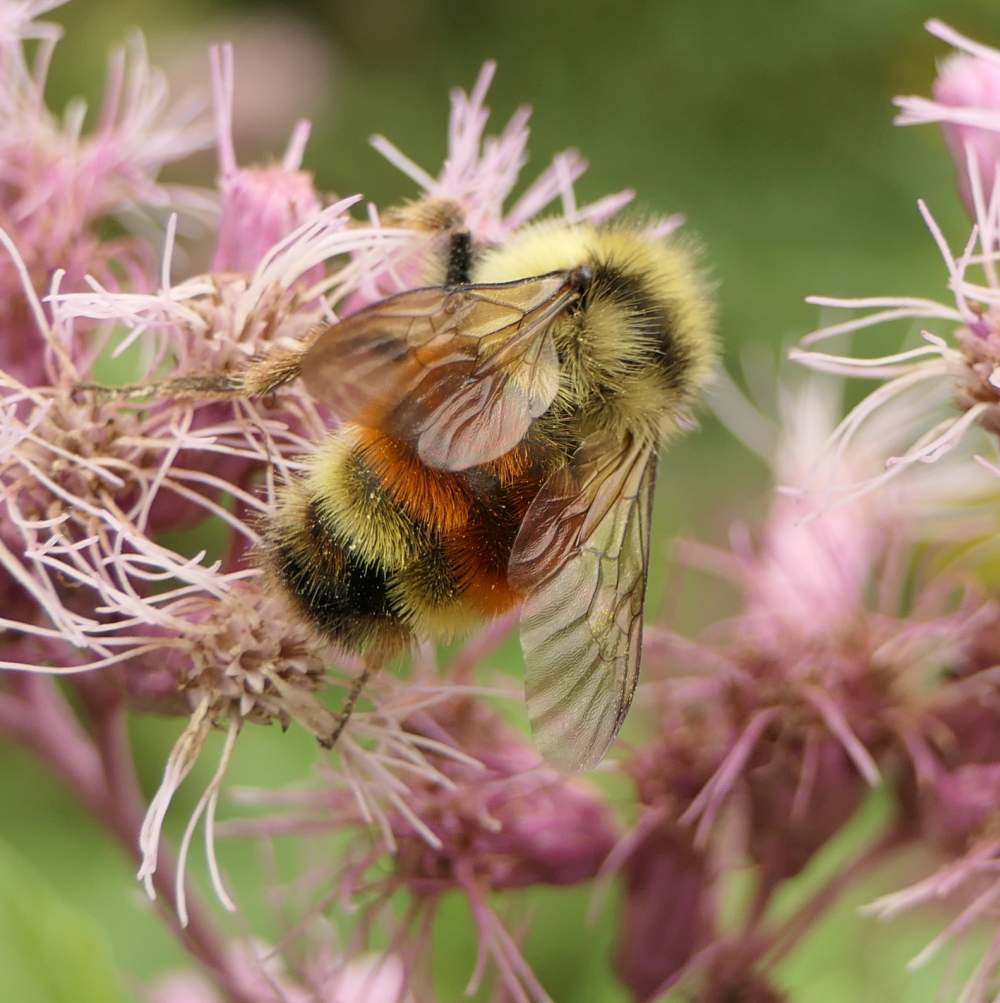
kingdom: Animalia
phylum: Arthropoda
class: Insecta
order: Hymenoptera
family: Apidae
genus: Bombus
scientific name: Bombus ternarius
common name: Tri-colored bumble bee
